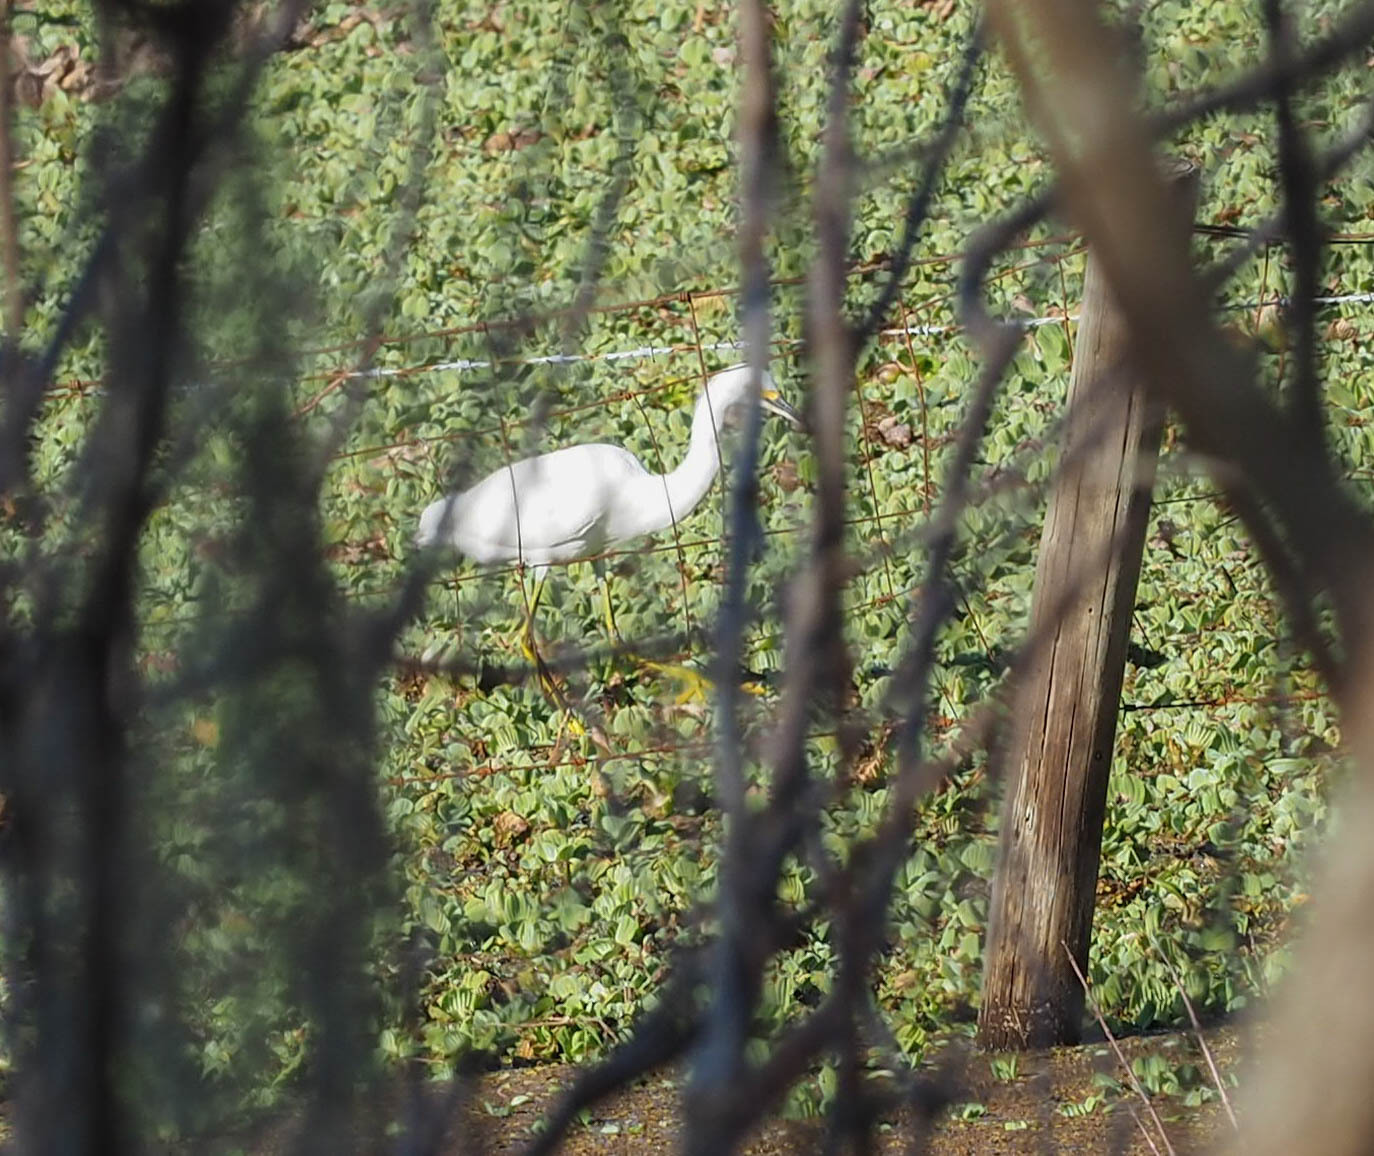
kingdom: Animalia
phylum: Chordata
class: Aves
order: Pelecaniformes
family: Ardeidae
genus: Egretta
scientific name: Egretta thula
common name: Snowy egret
